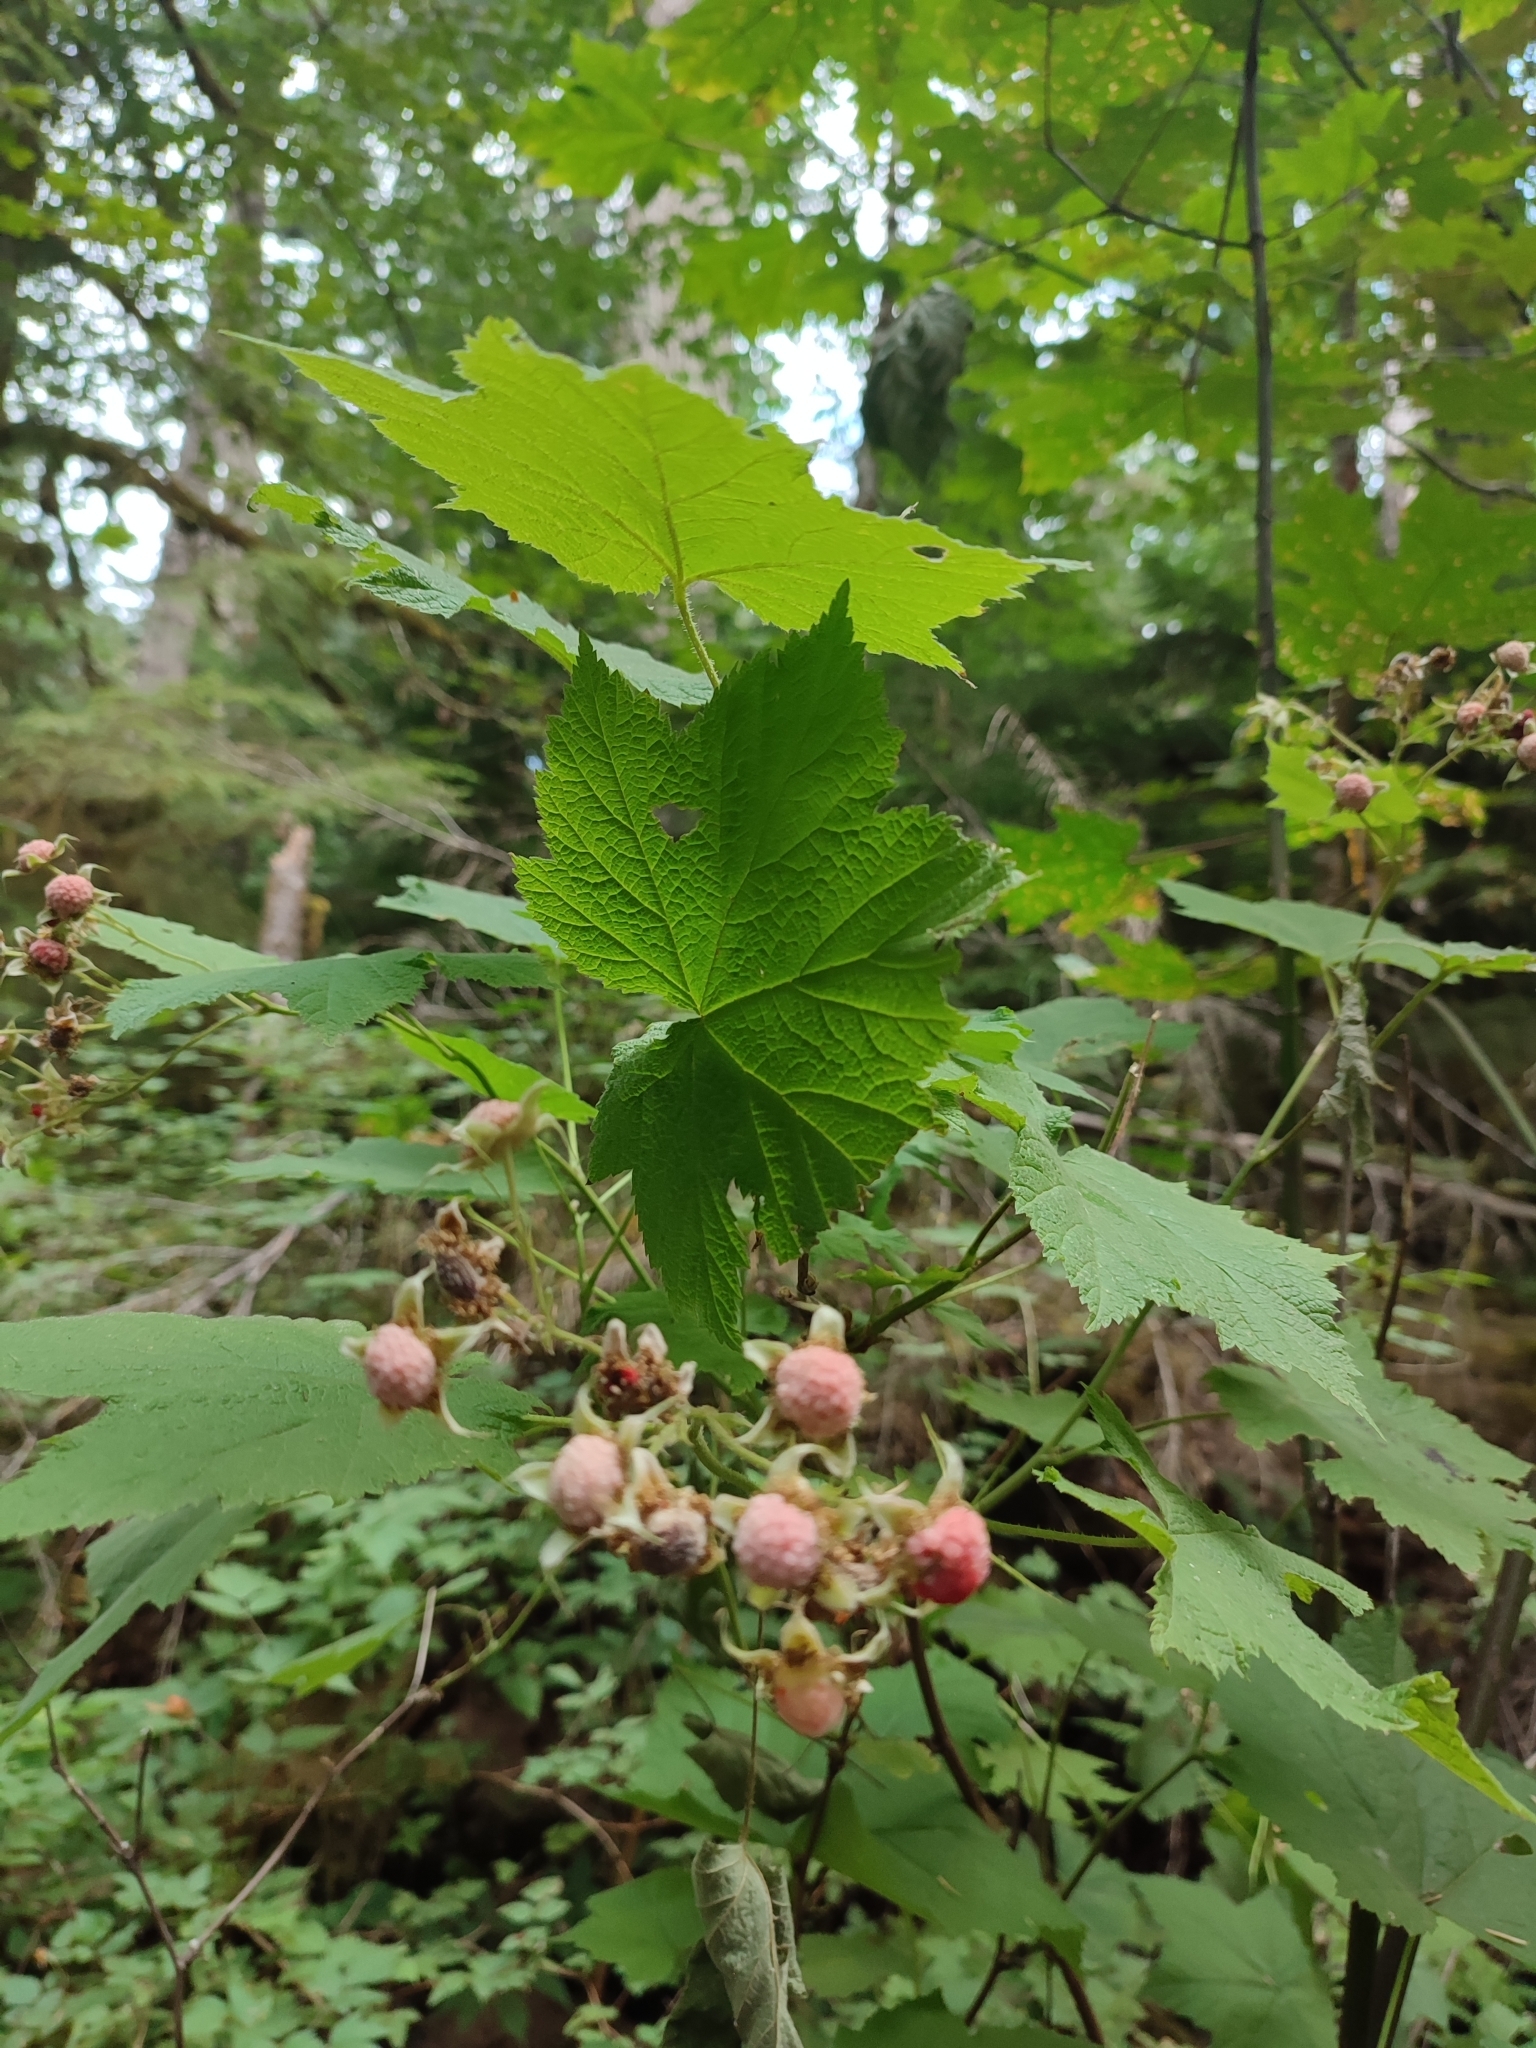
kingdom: Plantae
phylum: Tracheophyta
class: Magnoliopsida
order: Rosales
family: Rosaceae
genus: Rubus
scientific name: Rubus parviflorus
